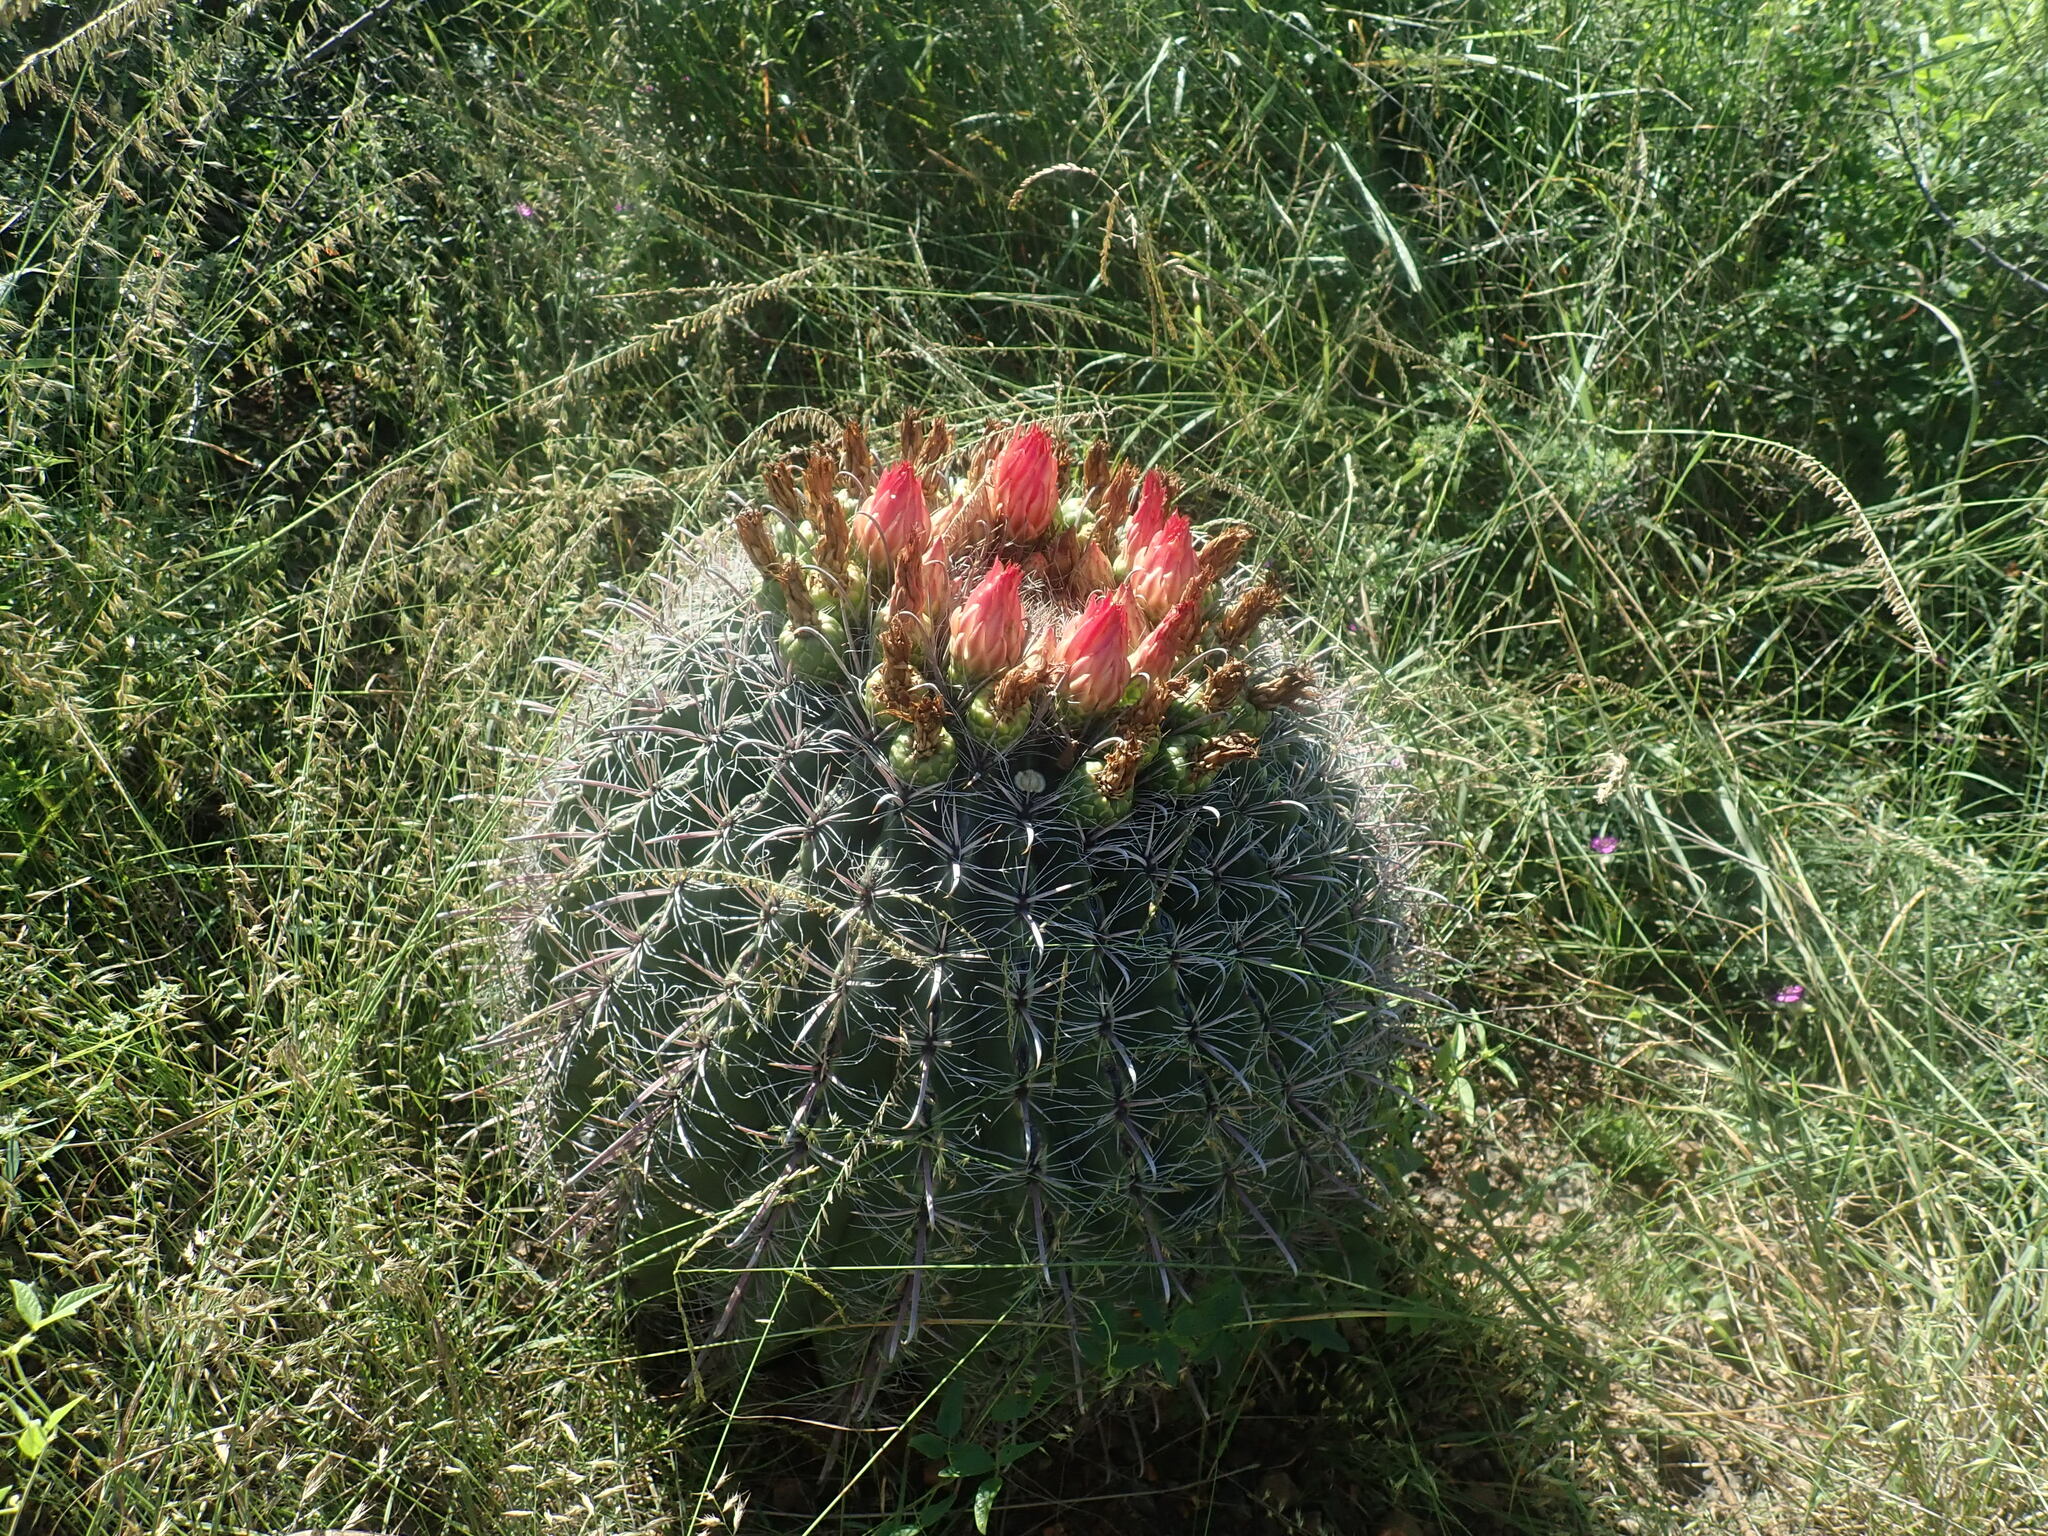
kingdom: Plantae
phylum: Tracheophyta
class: Magnoliopsida
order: Caryophyllales
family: Cactaceae
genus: Ferocactus
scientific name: Ferocactus wislizeni
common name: Candy barrel cactus
